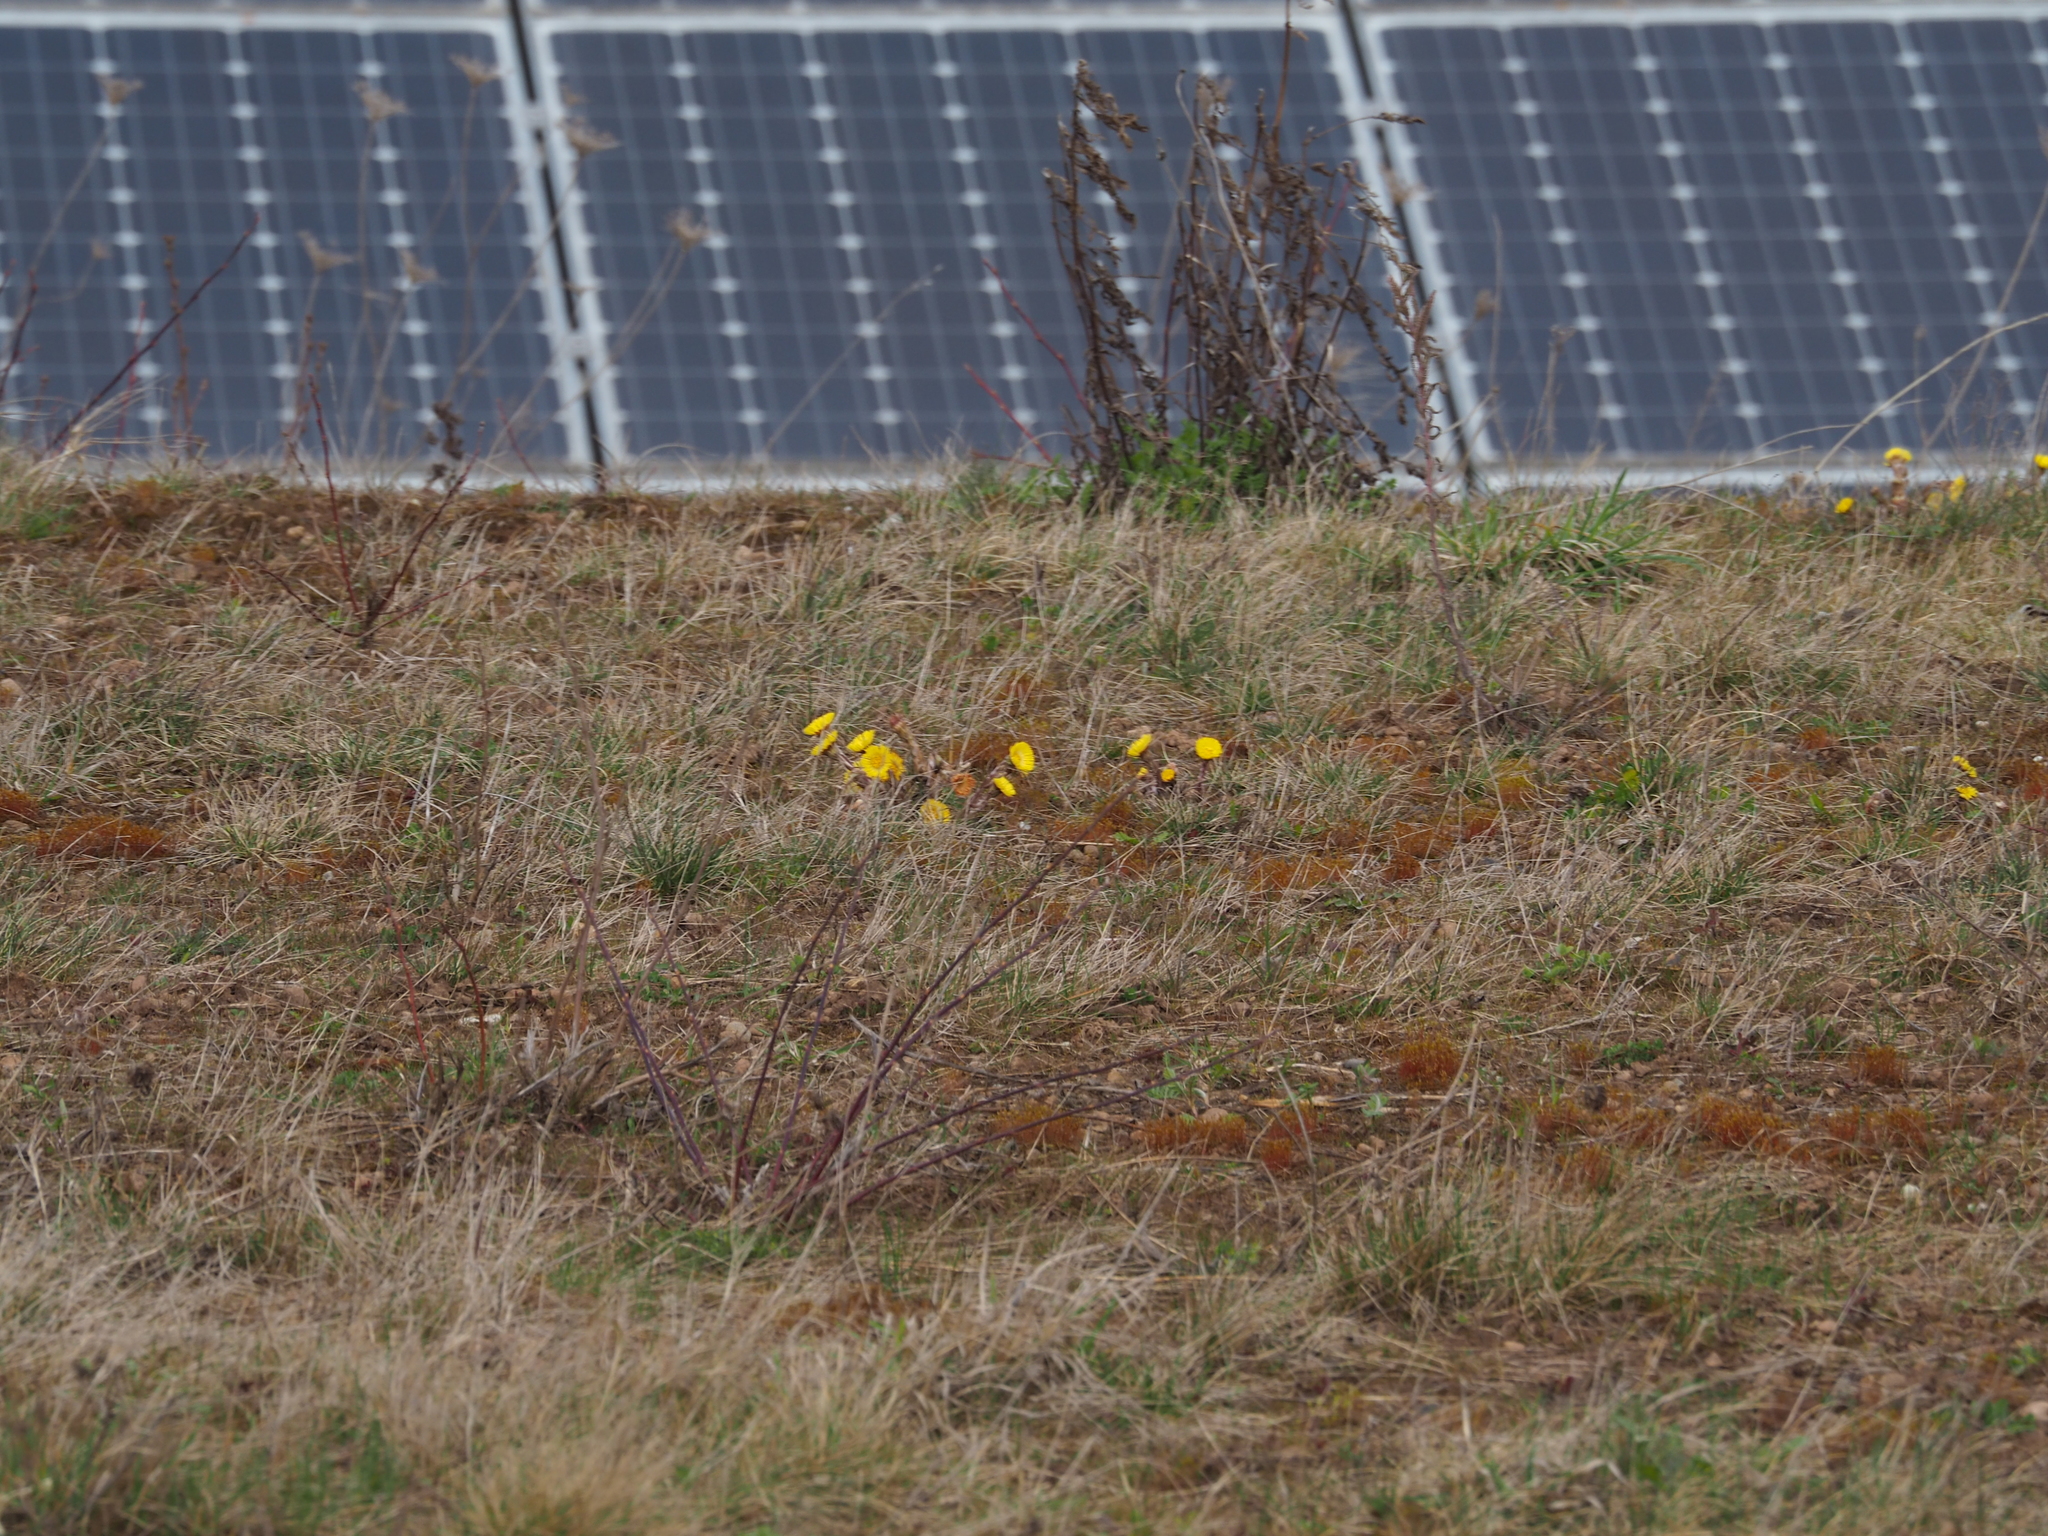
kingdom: Plantae
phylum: Tracheophyta
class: Magnoliopsida
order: Asterales
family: Asteraceae
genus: Tussilago
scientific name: Tussilago farfara
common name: Coltsfoot
